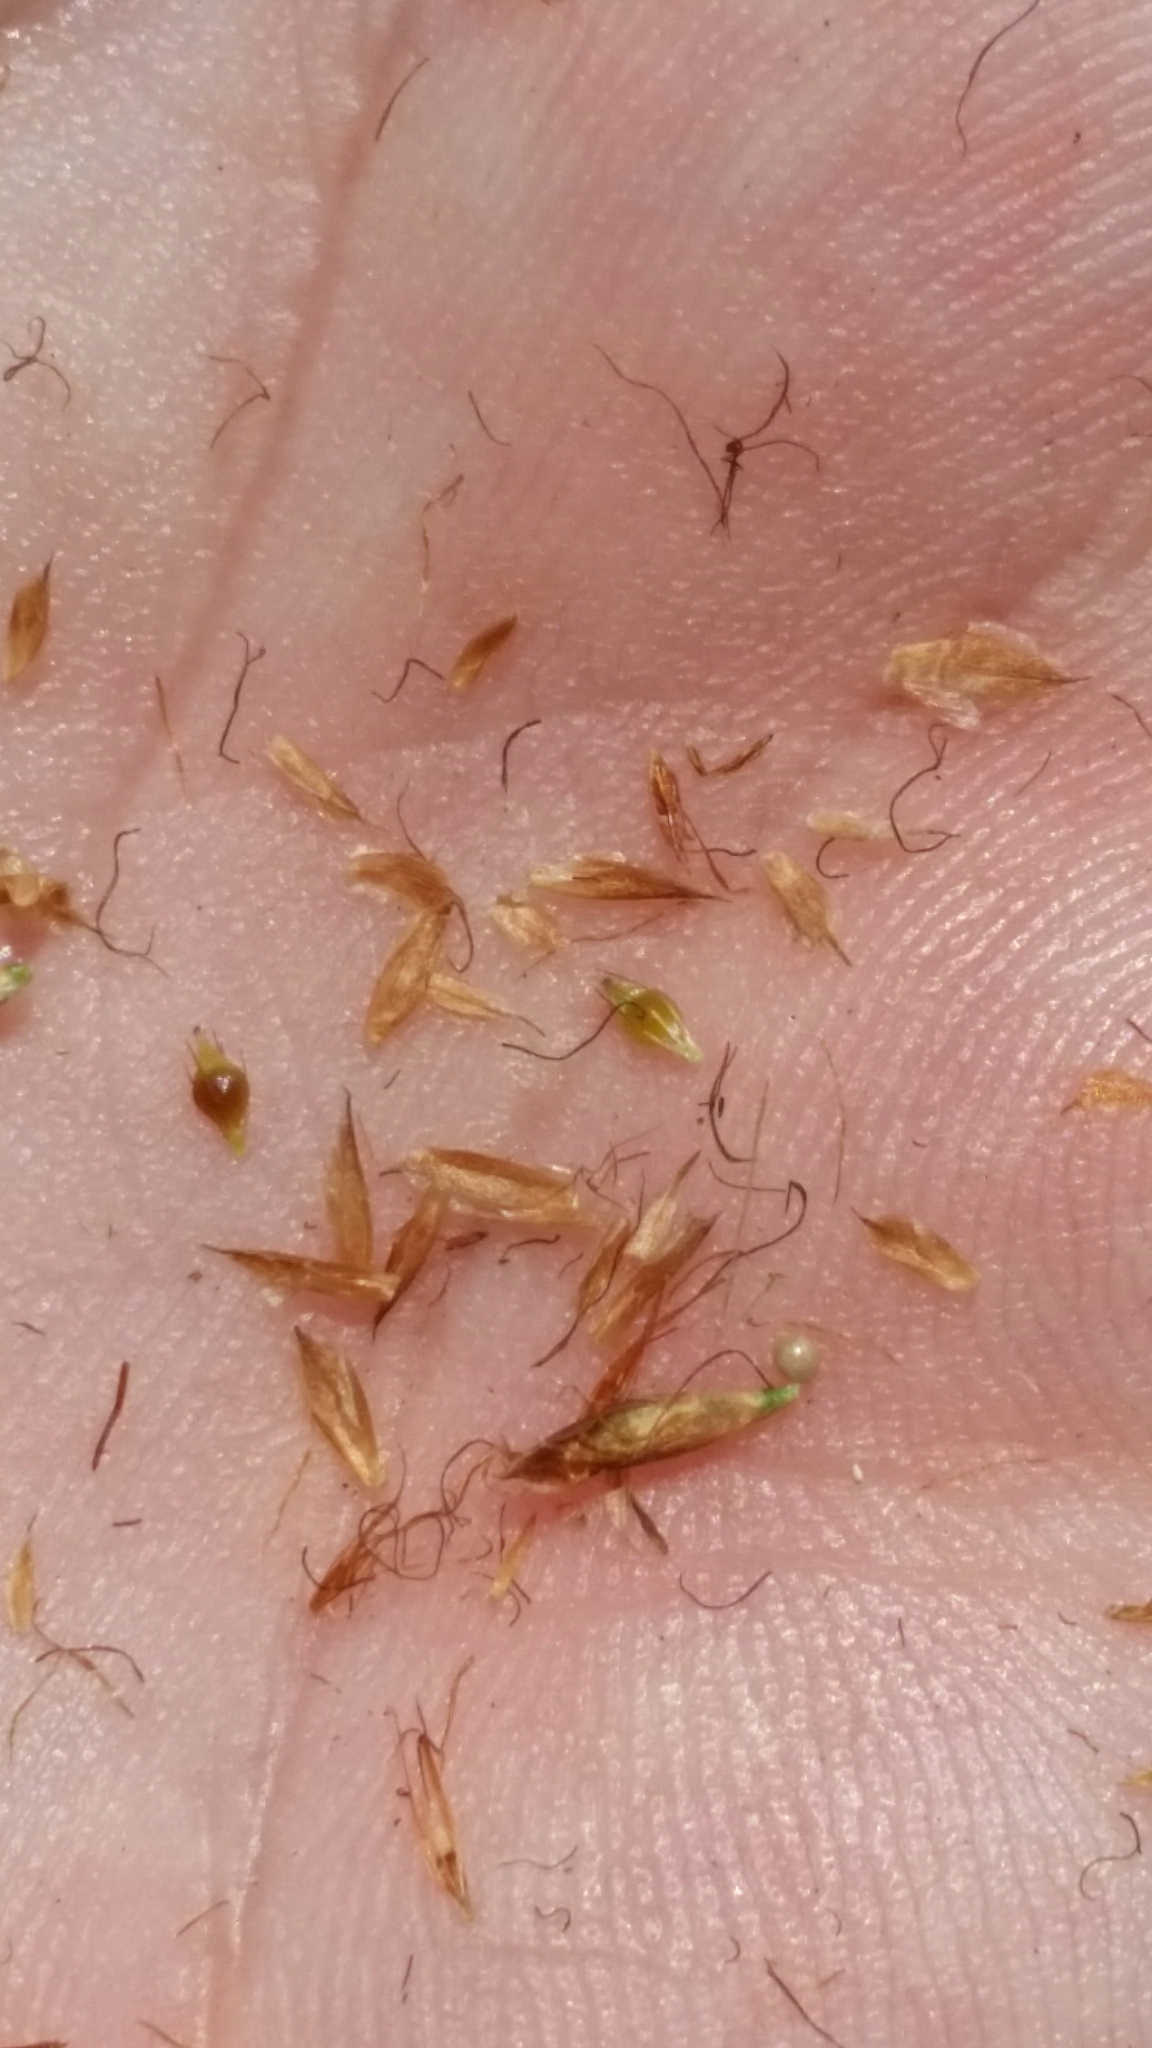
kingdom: Plantae
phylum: Tracheophyta
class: Liliopsida
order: Poales
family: Cyperaceae
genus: Rhynchospora
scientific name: Rhynchospora harperi
